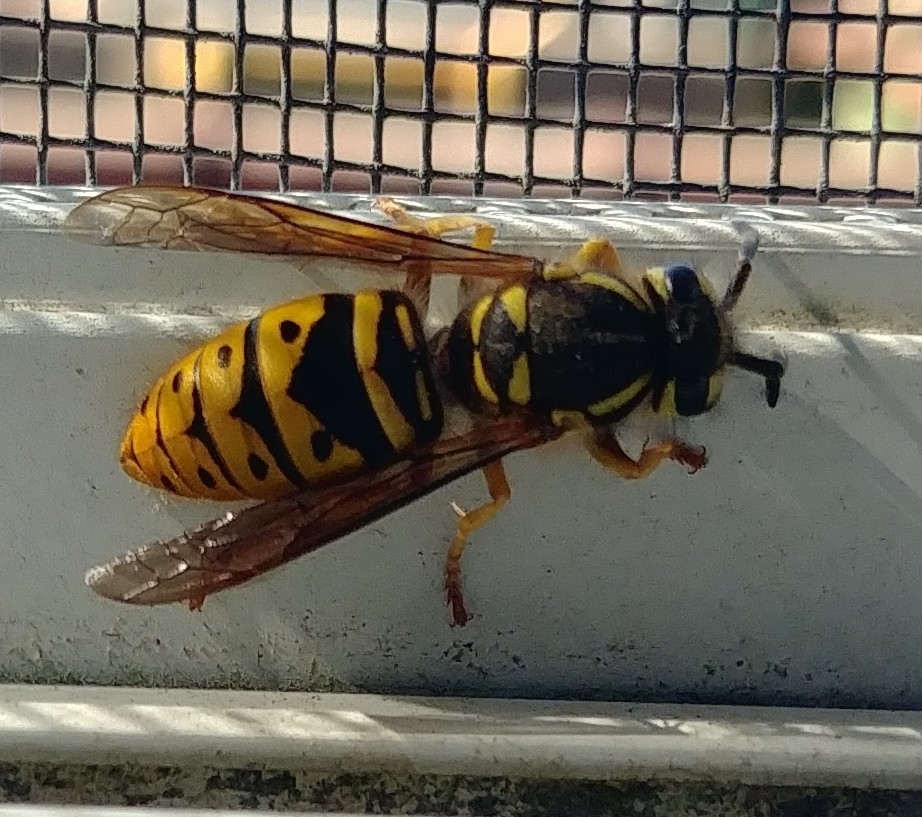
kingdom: Animalia
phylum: Arthropoda
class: Insecta
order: Hymenoptera
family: Vespidae
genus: Vespula
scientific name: Vespula maculifrons
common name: Eastern yellowjacket
